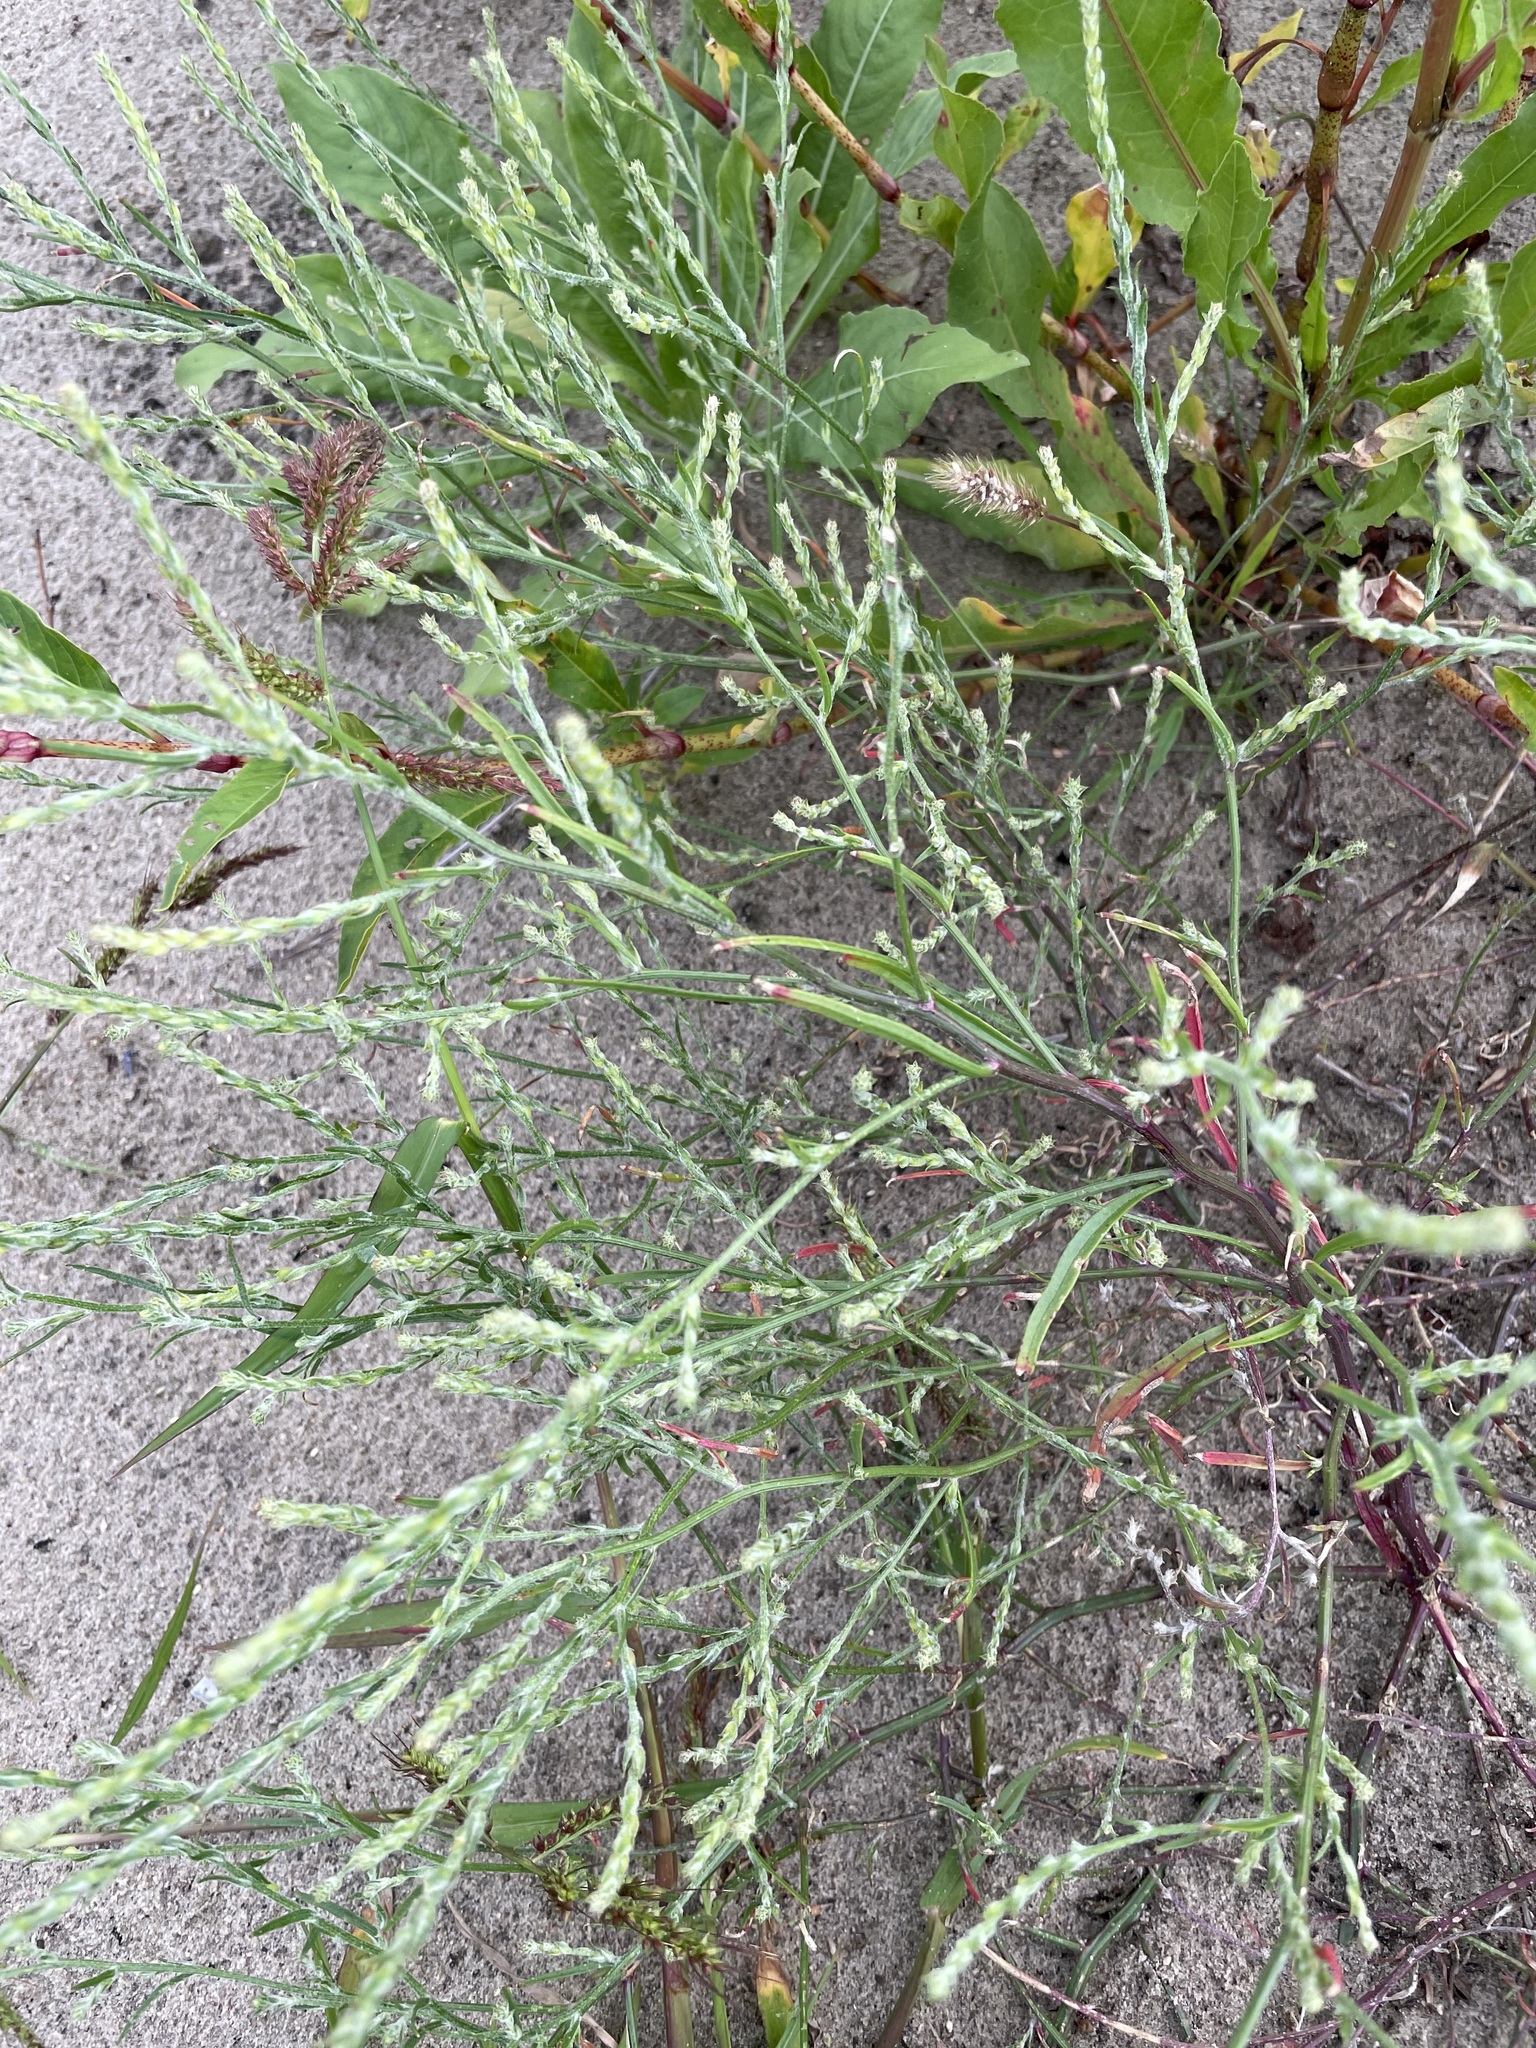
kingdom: Plantae
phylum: Tracheophyta
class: Magnoliopsida
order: Caryophyllales
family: Amaranthaceae
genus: Corispermum
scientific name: Corispermum hyssopifolium
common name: Bugseed
